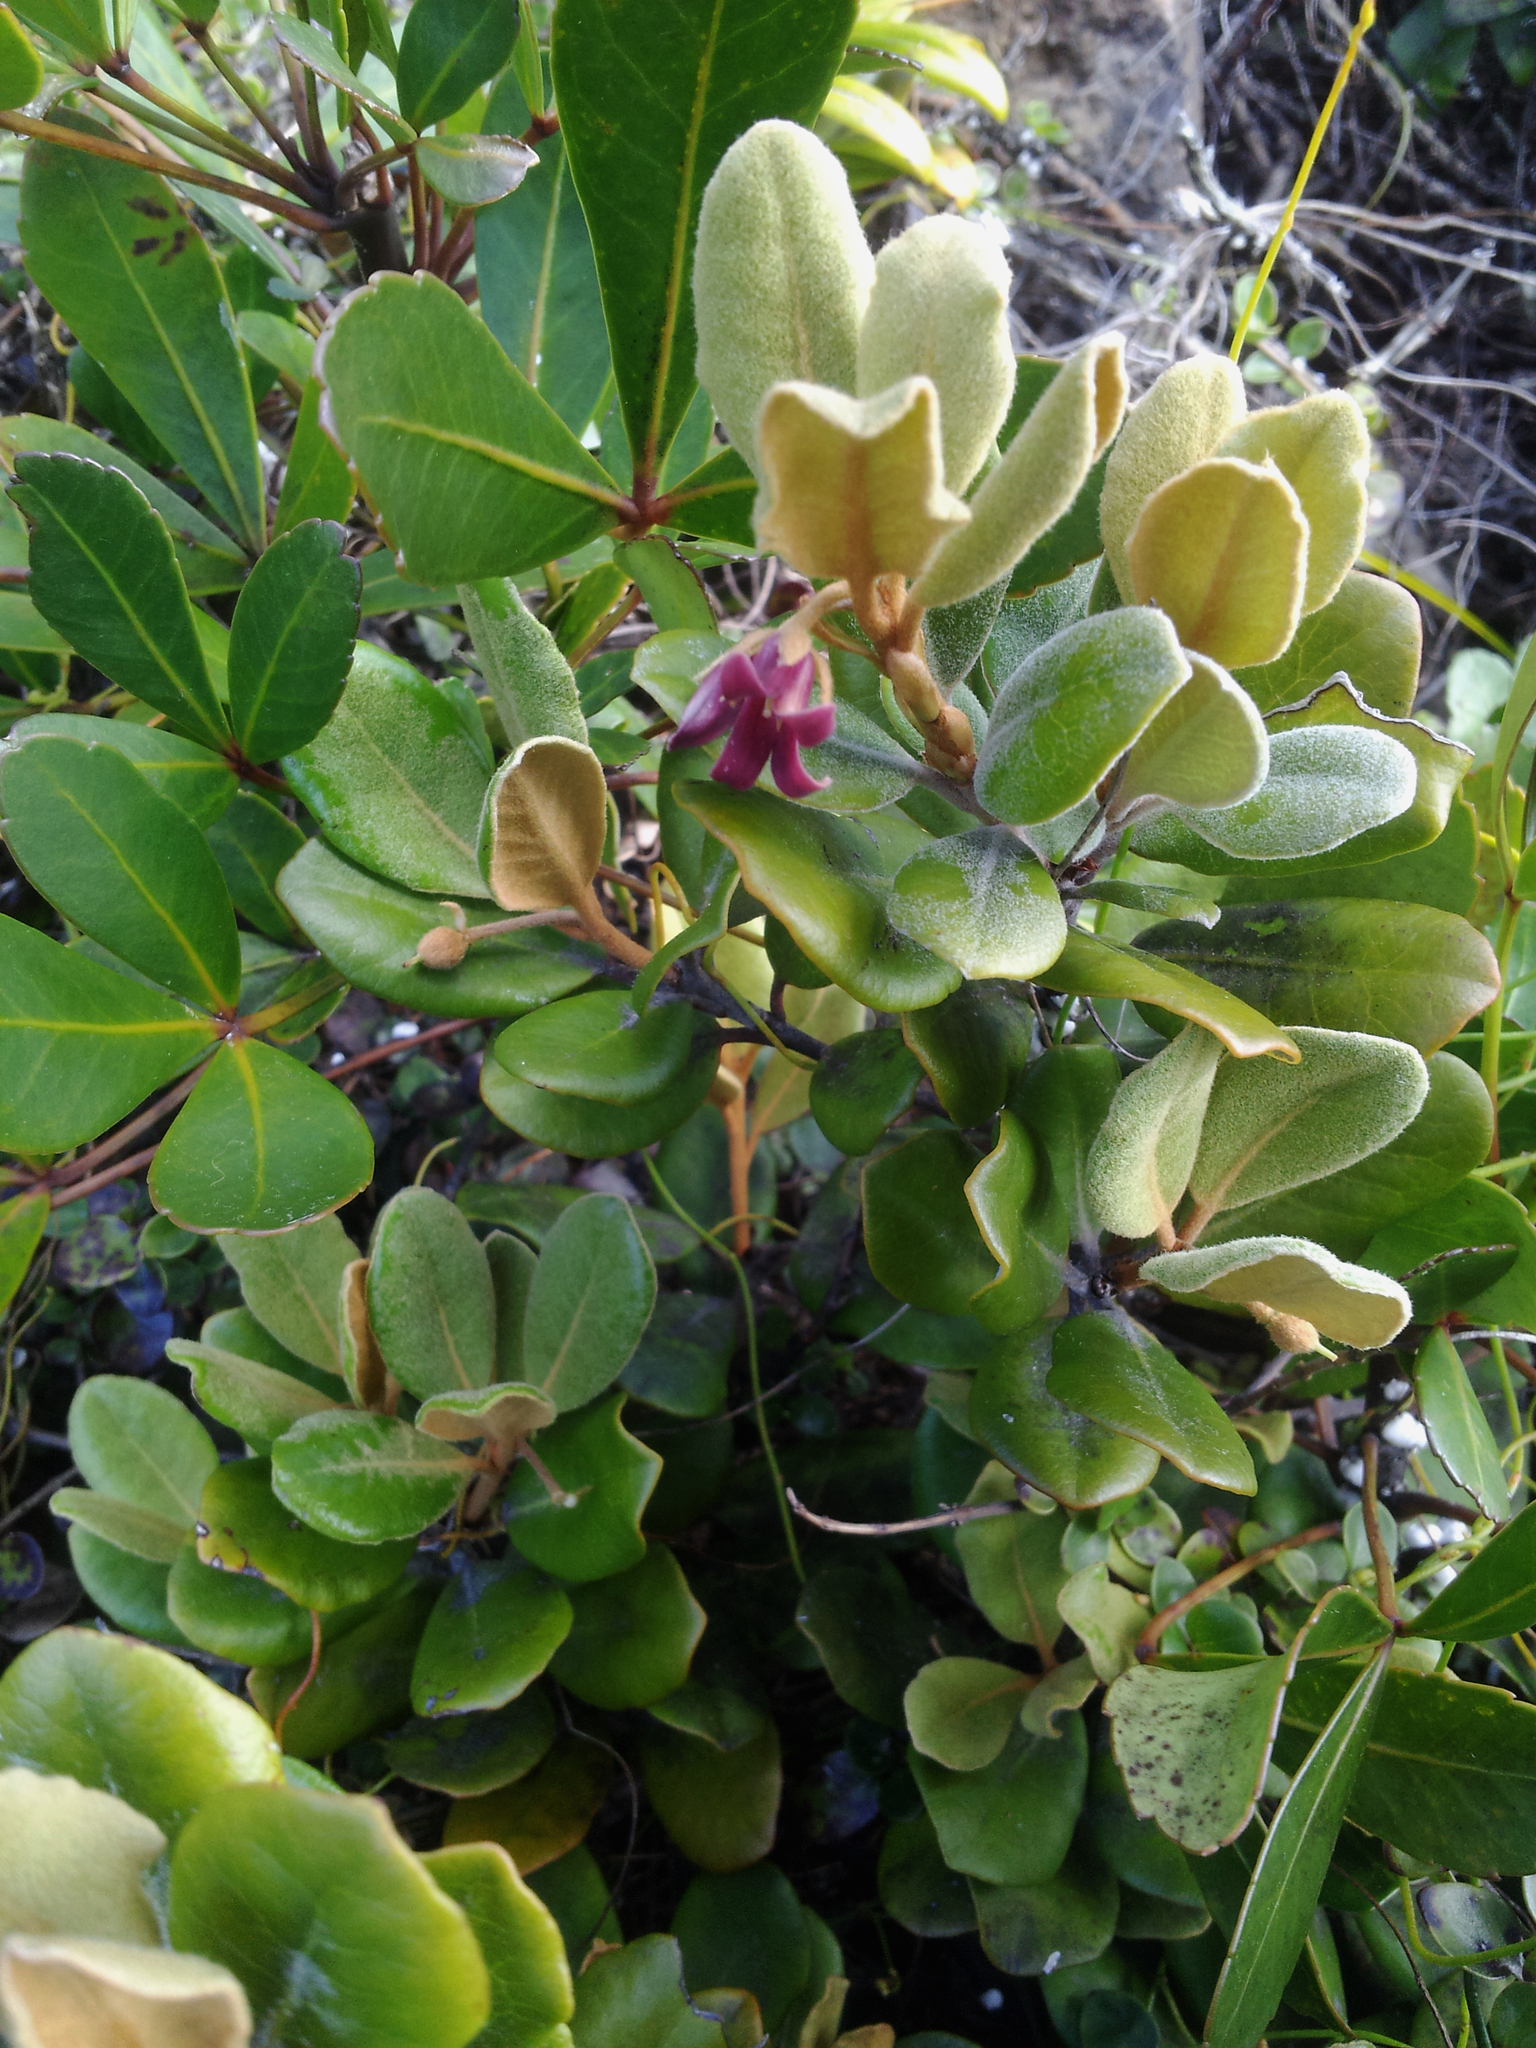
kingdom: Plantae
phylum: Tracheophyta
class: Magnoliopsida
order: Apiales
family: Pittosporaceae
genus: Pittosporum
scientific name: Pittosporum serpentinum
